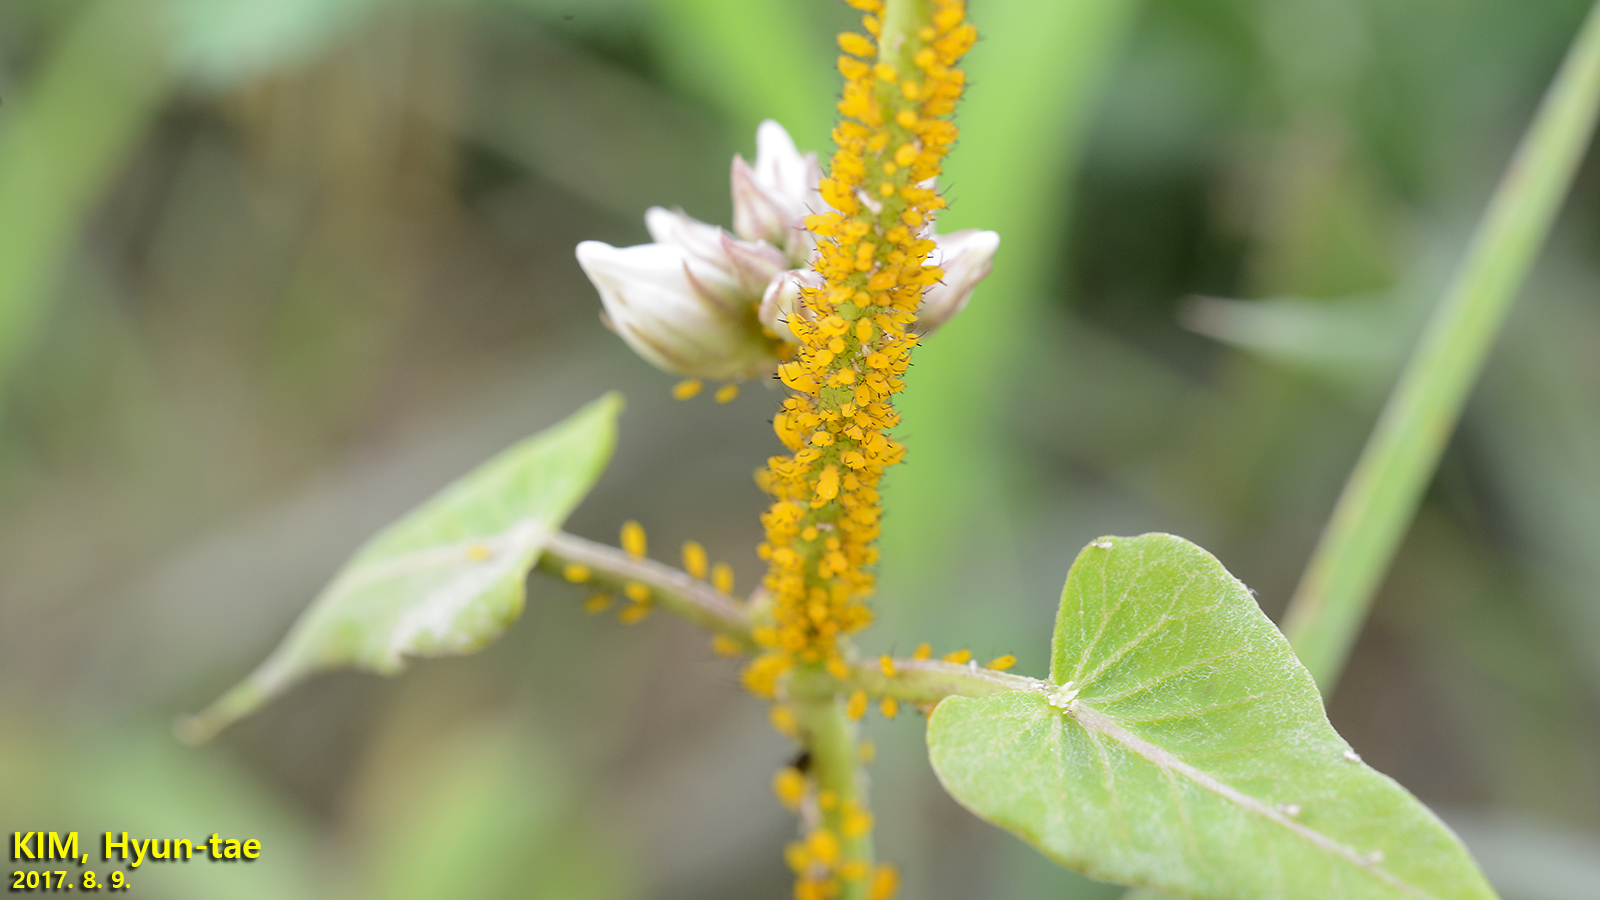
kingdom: Animalia
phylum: Arthropoda
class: Insecta
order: Hemiptera
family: Aphididae
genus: Aphis
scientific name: Aphis nerii
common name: Oleander aphid
